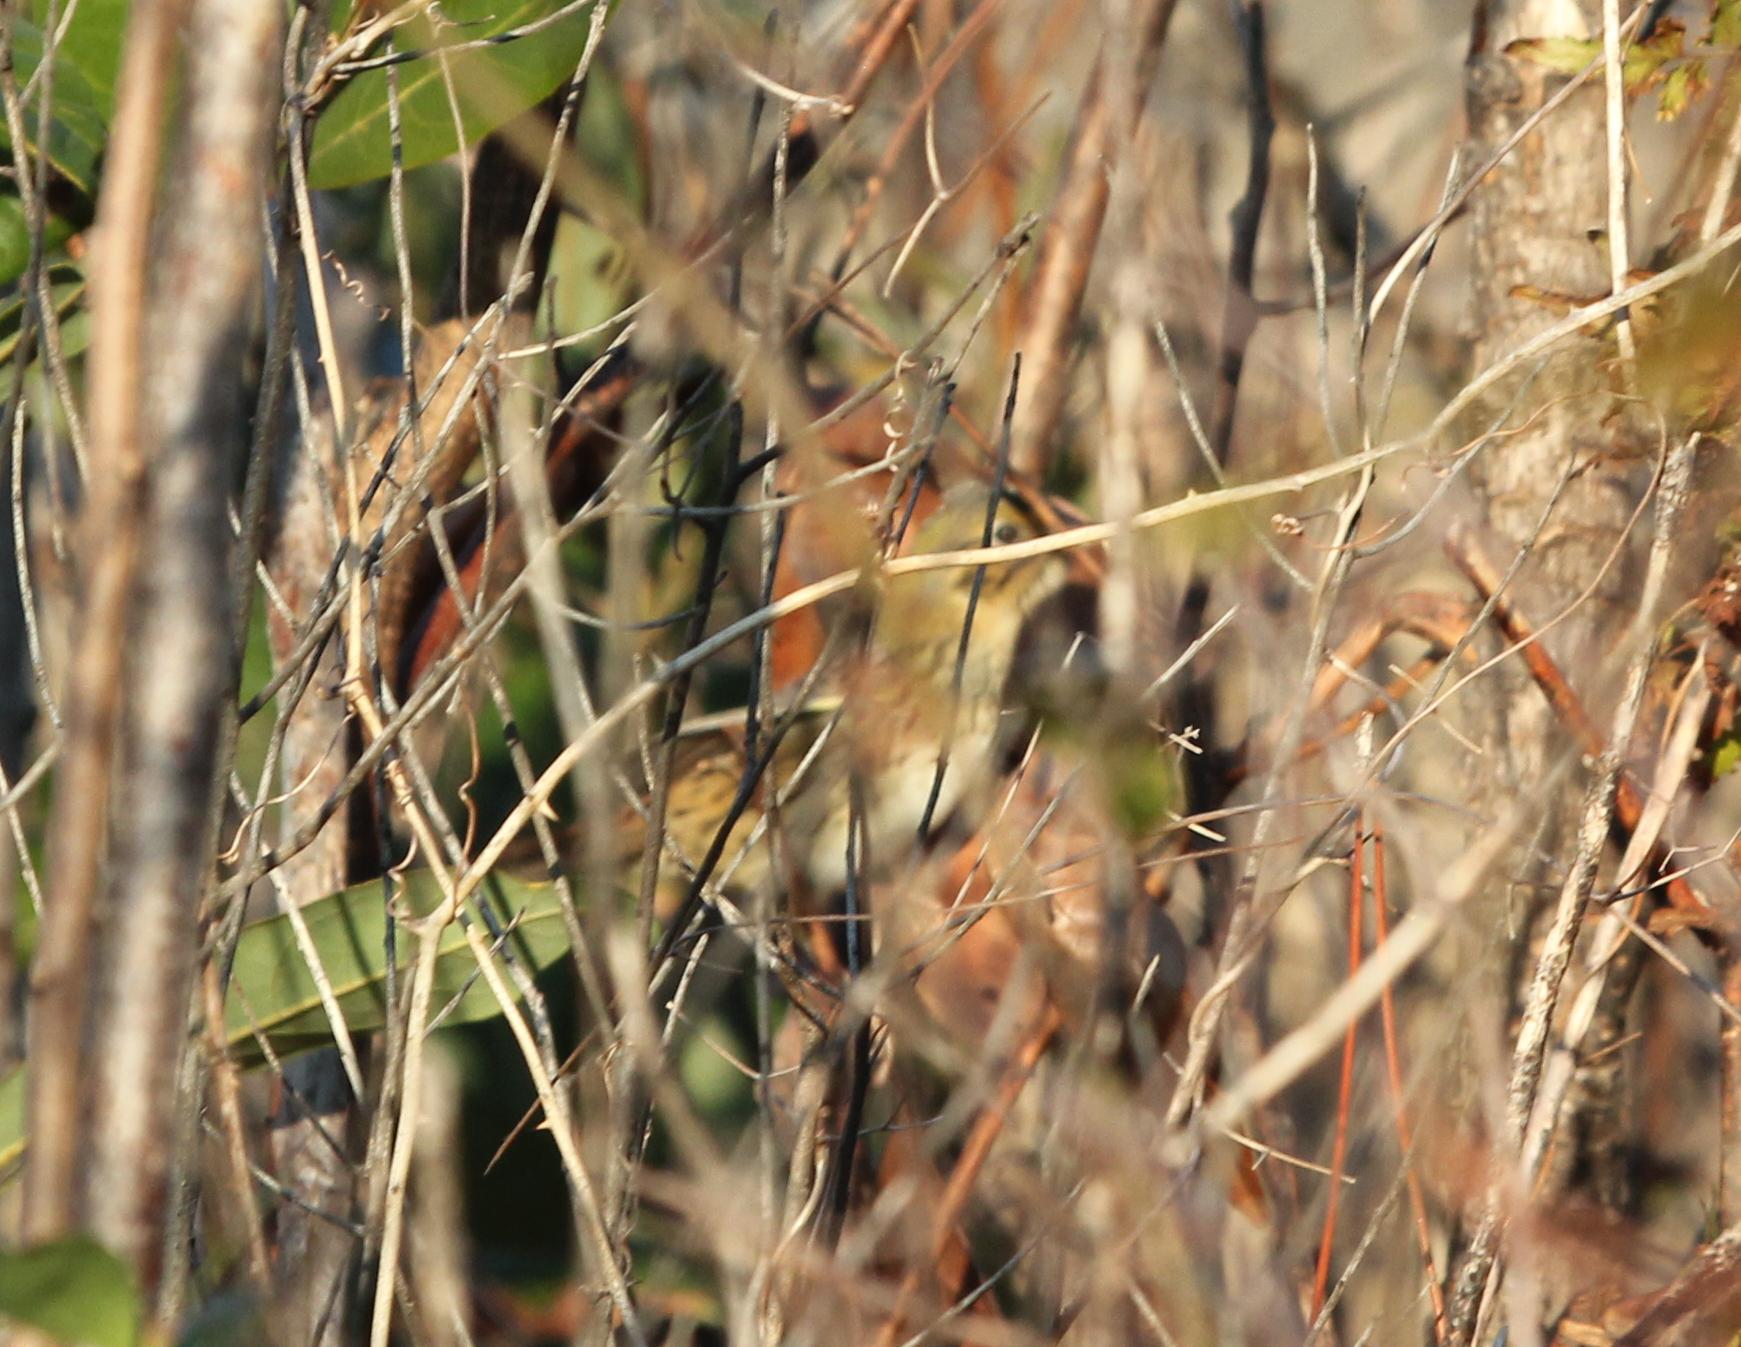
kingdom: Animalia
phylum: Chordata
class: Aves
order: Passeriformes
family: Passerellidae
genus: Centronyx
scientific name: Centronyx henslowii
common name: Henslow's sparrow
